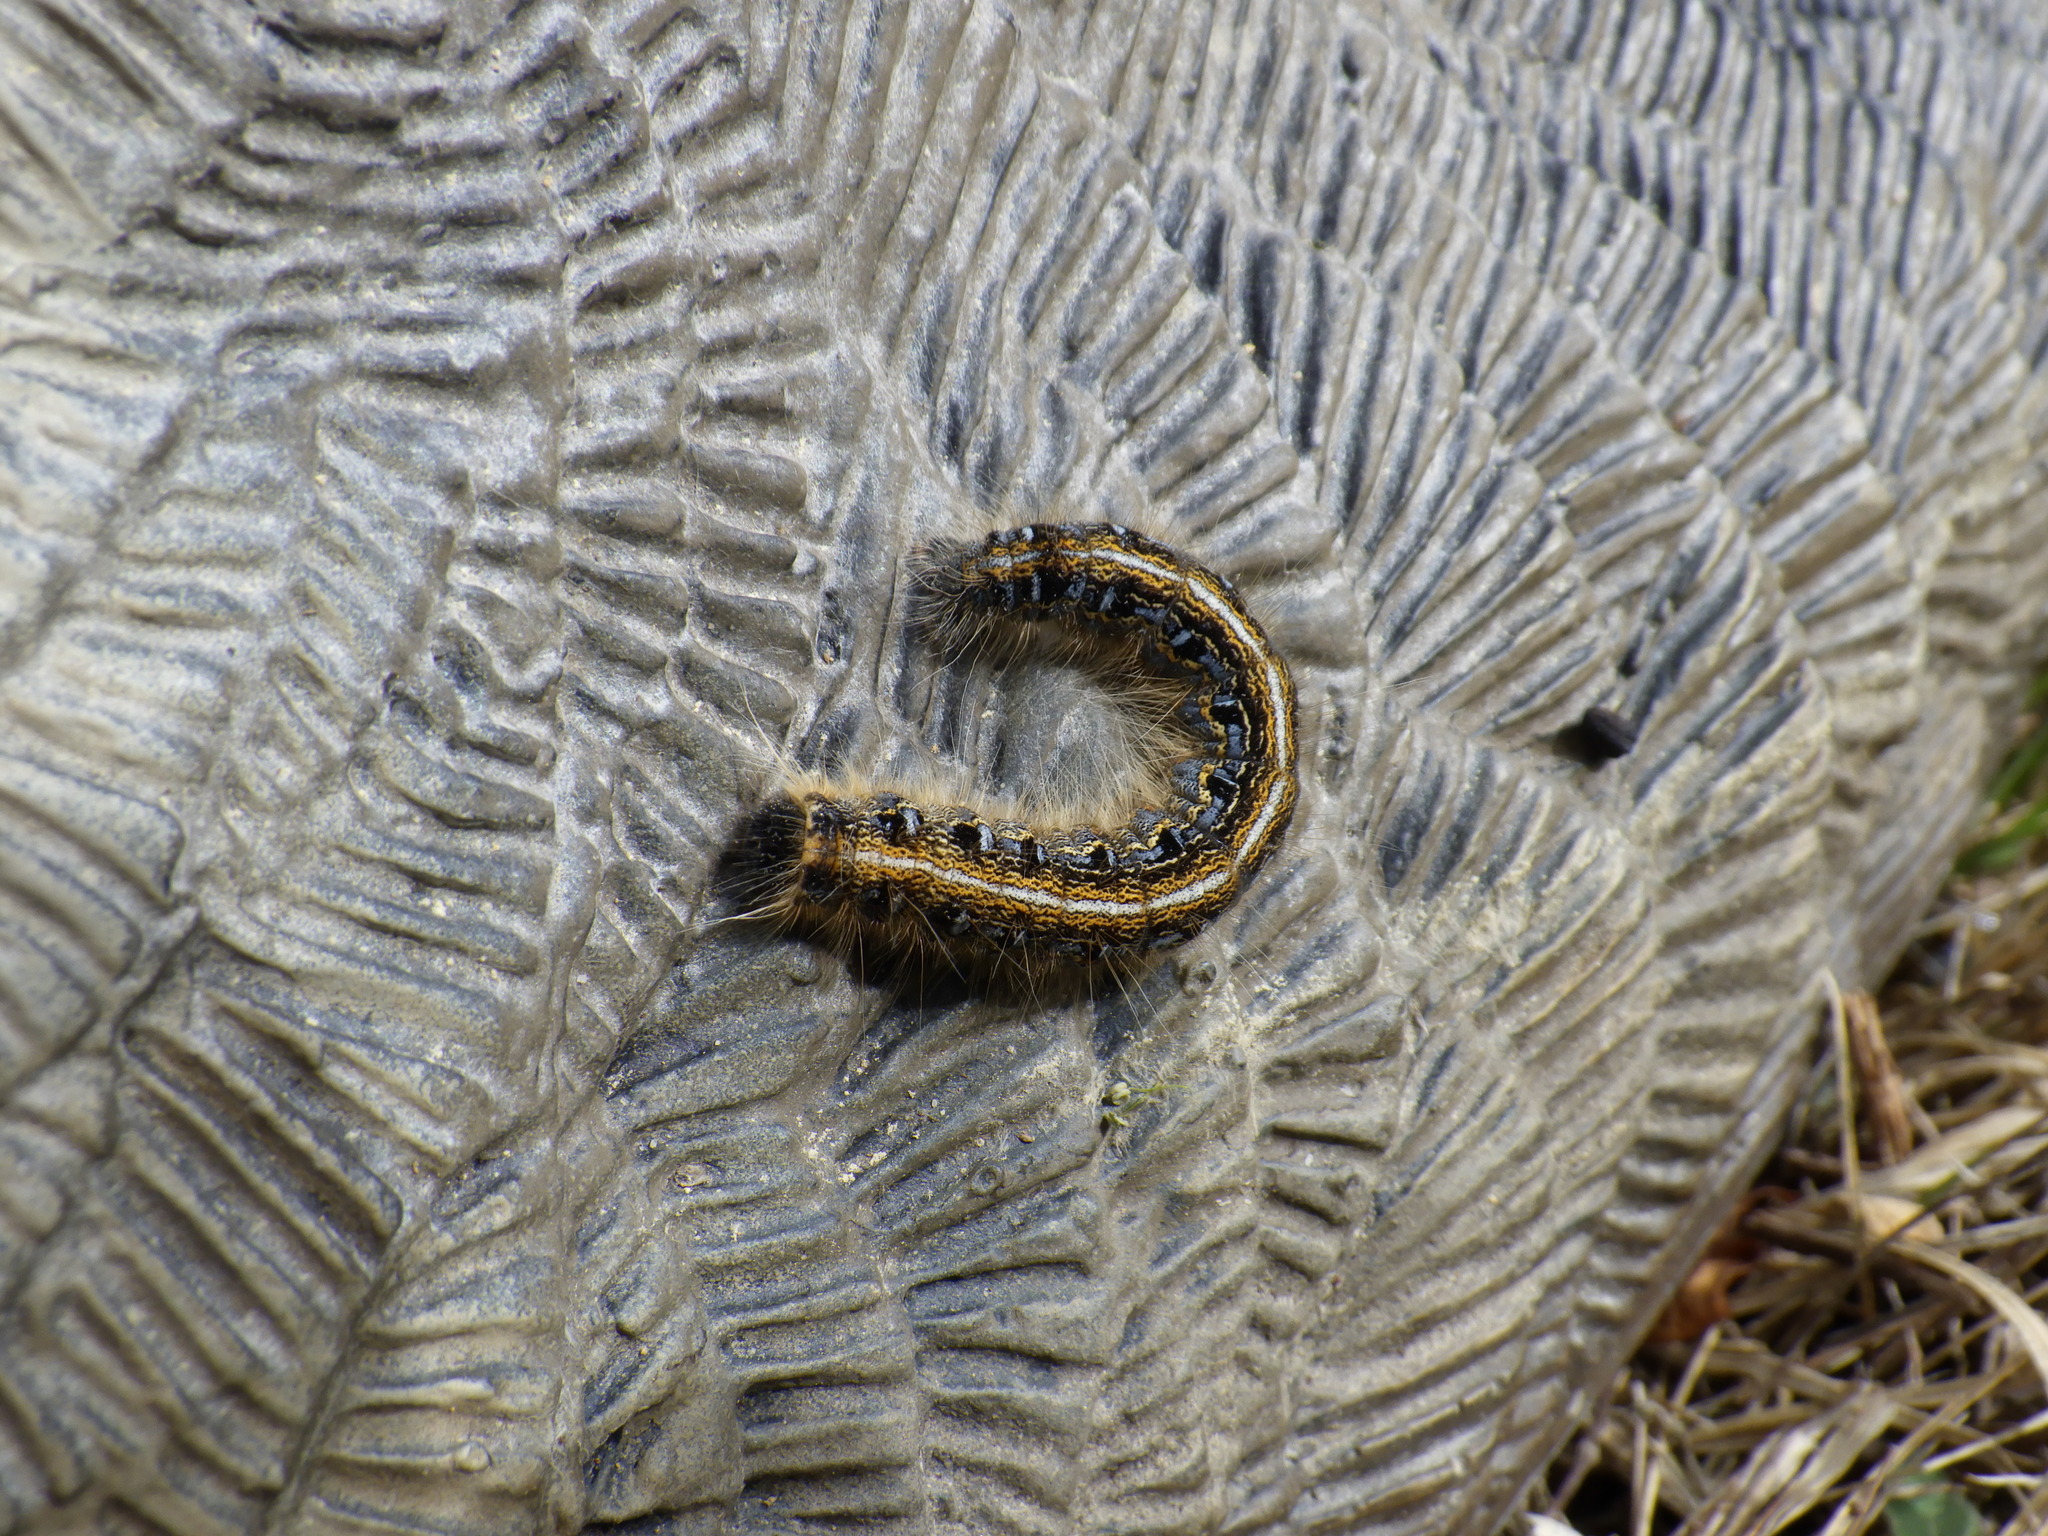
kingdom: Animalia
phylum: Arthropoda
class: Insecta
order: Lepidoptera
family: Lasiocampidae
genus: Malacosoma
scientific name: Malacosoma americana
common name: Eastern tent caterpillar moth
